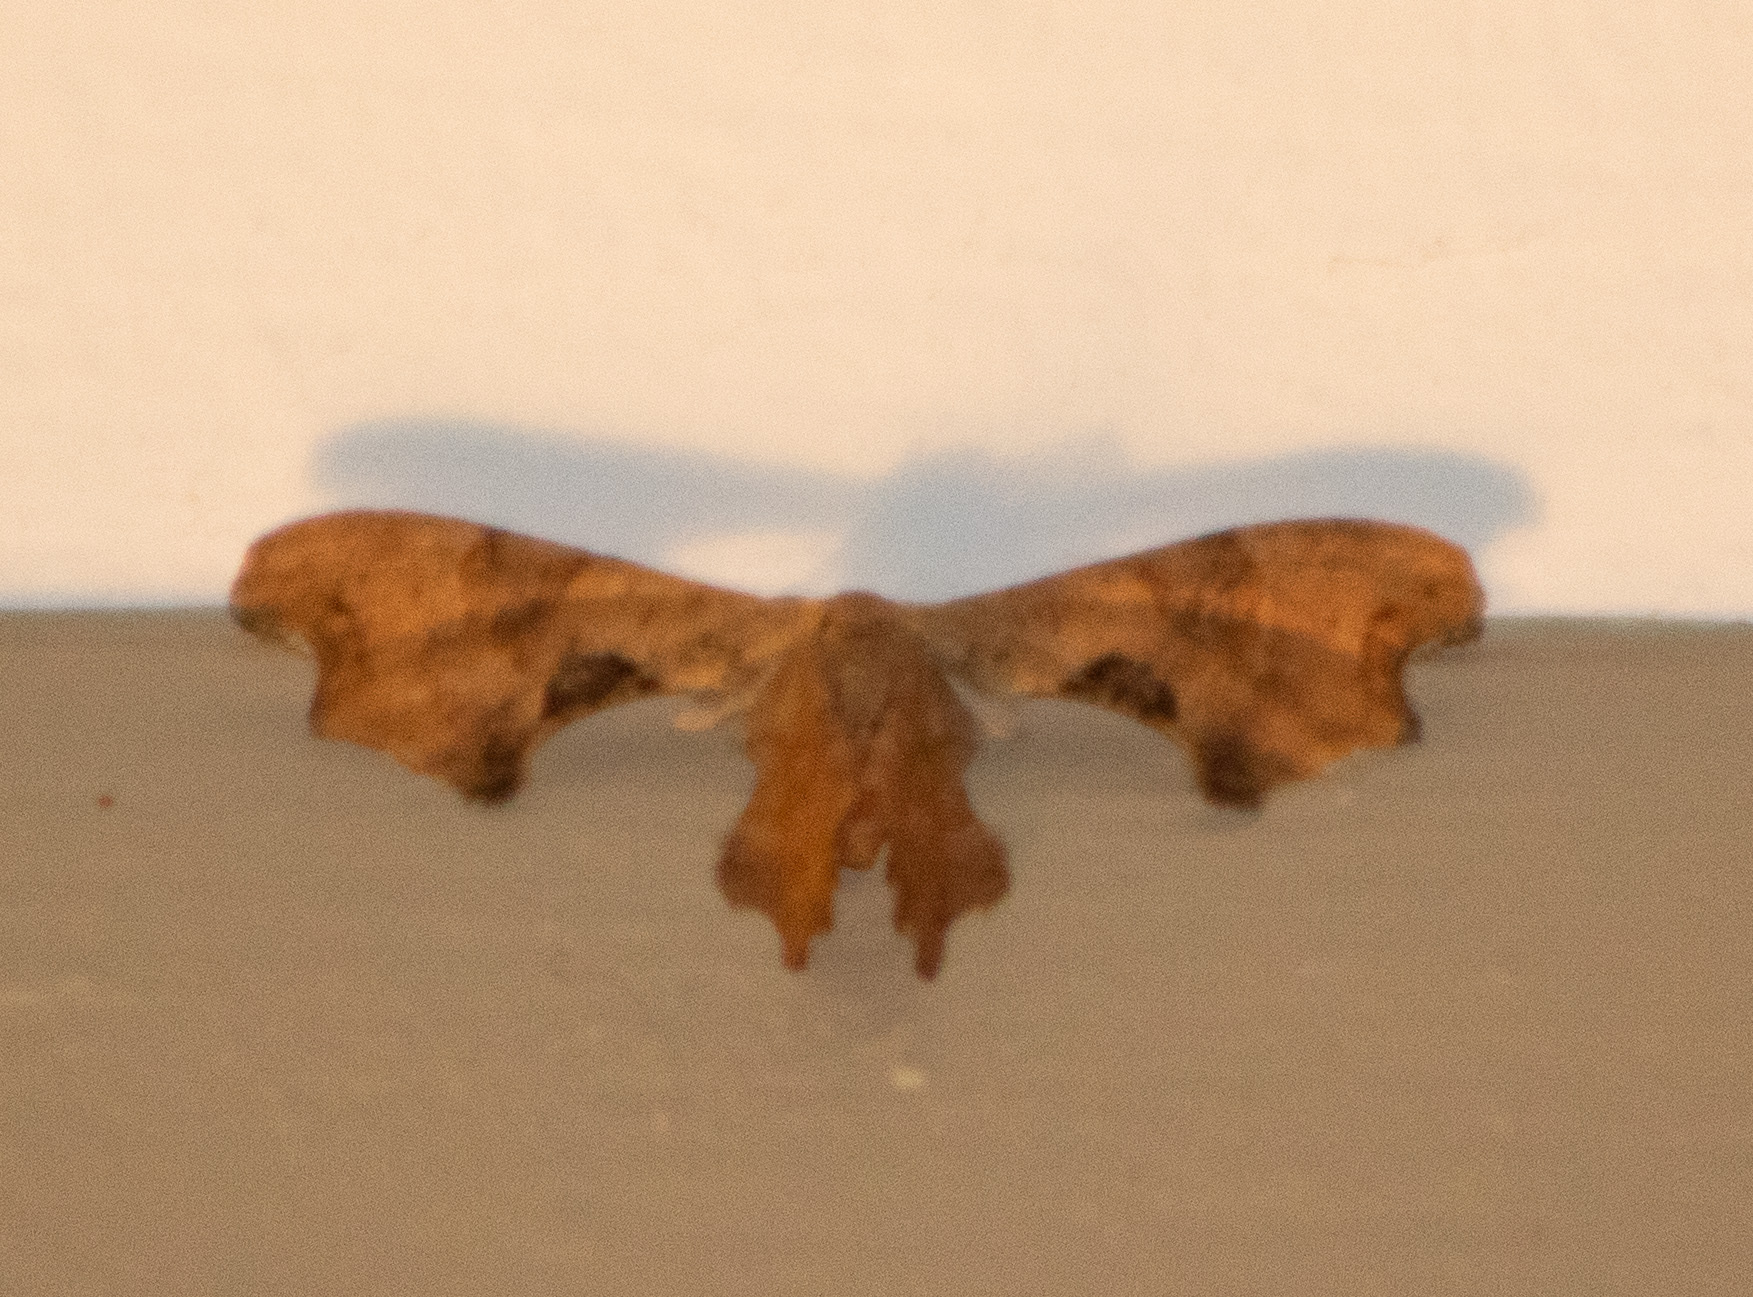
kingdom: Animalia
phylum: Arthropoda
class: Insecta
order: Lepidoptera
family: Uraniidae
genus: Epiplema
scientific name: Epiplema Calledapteryx dryopterata
